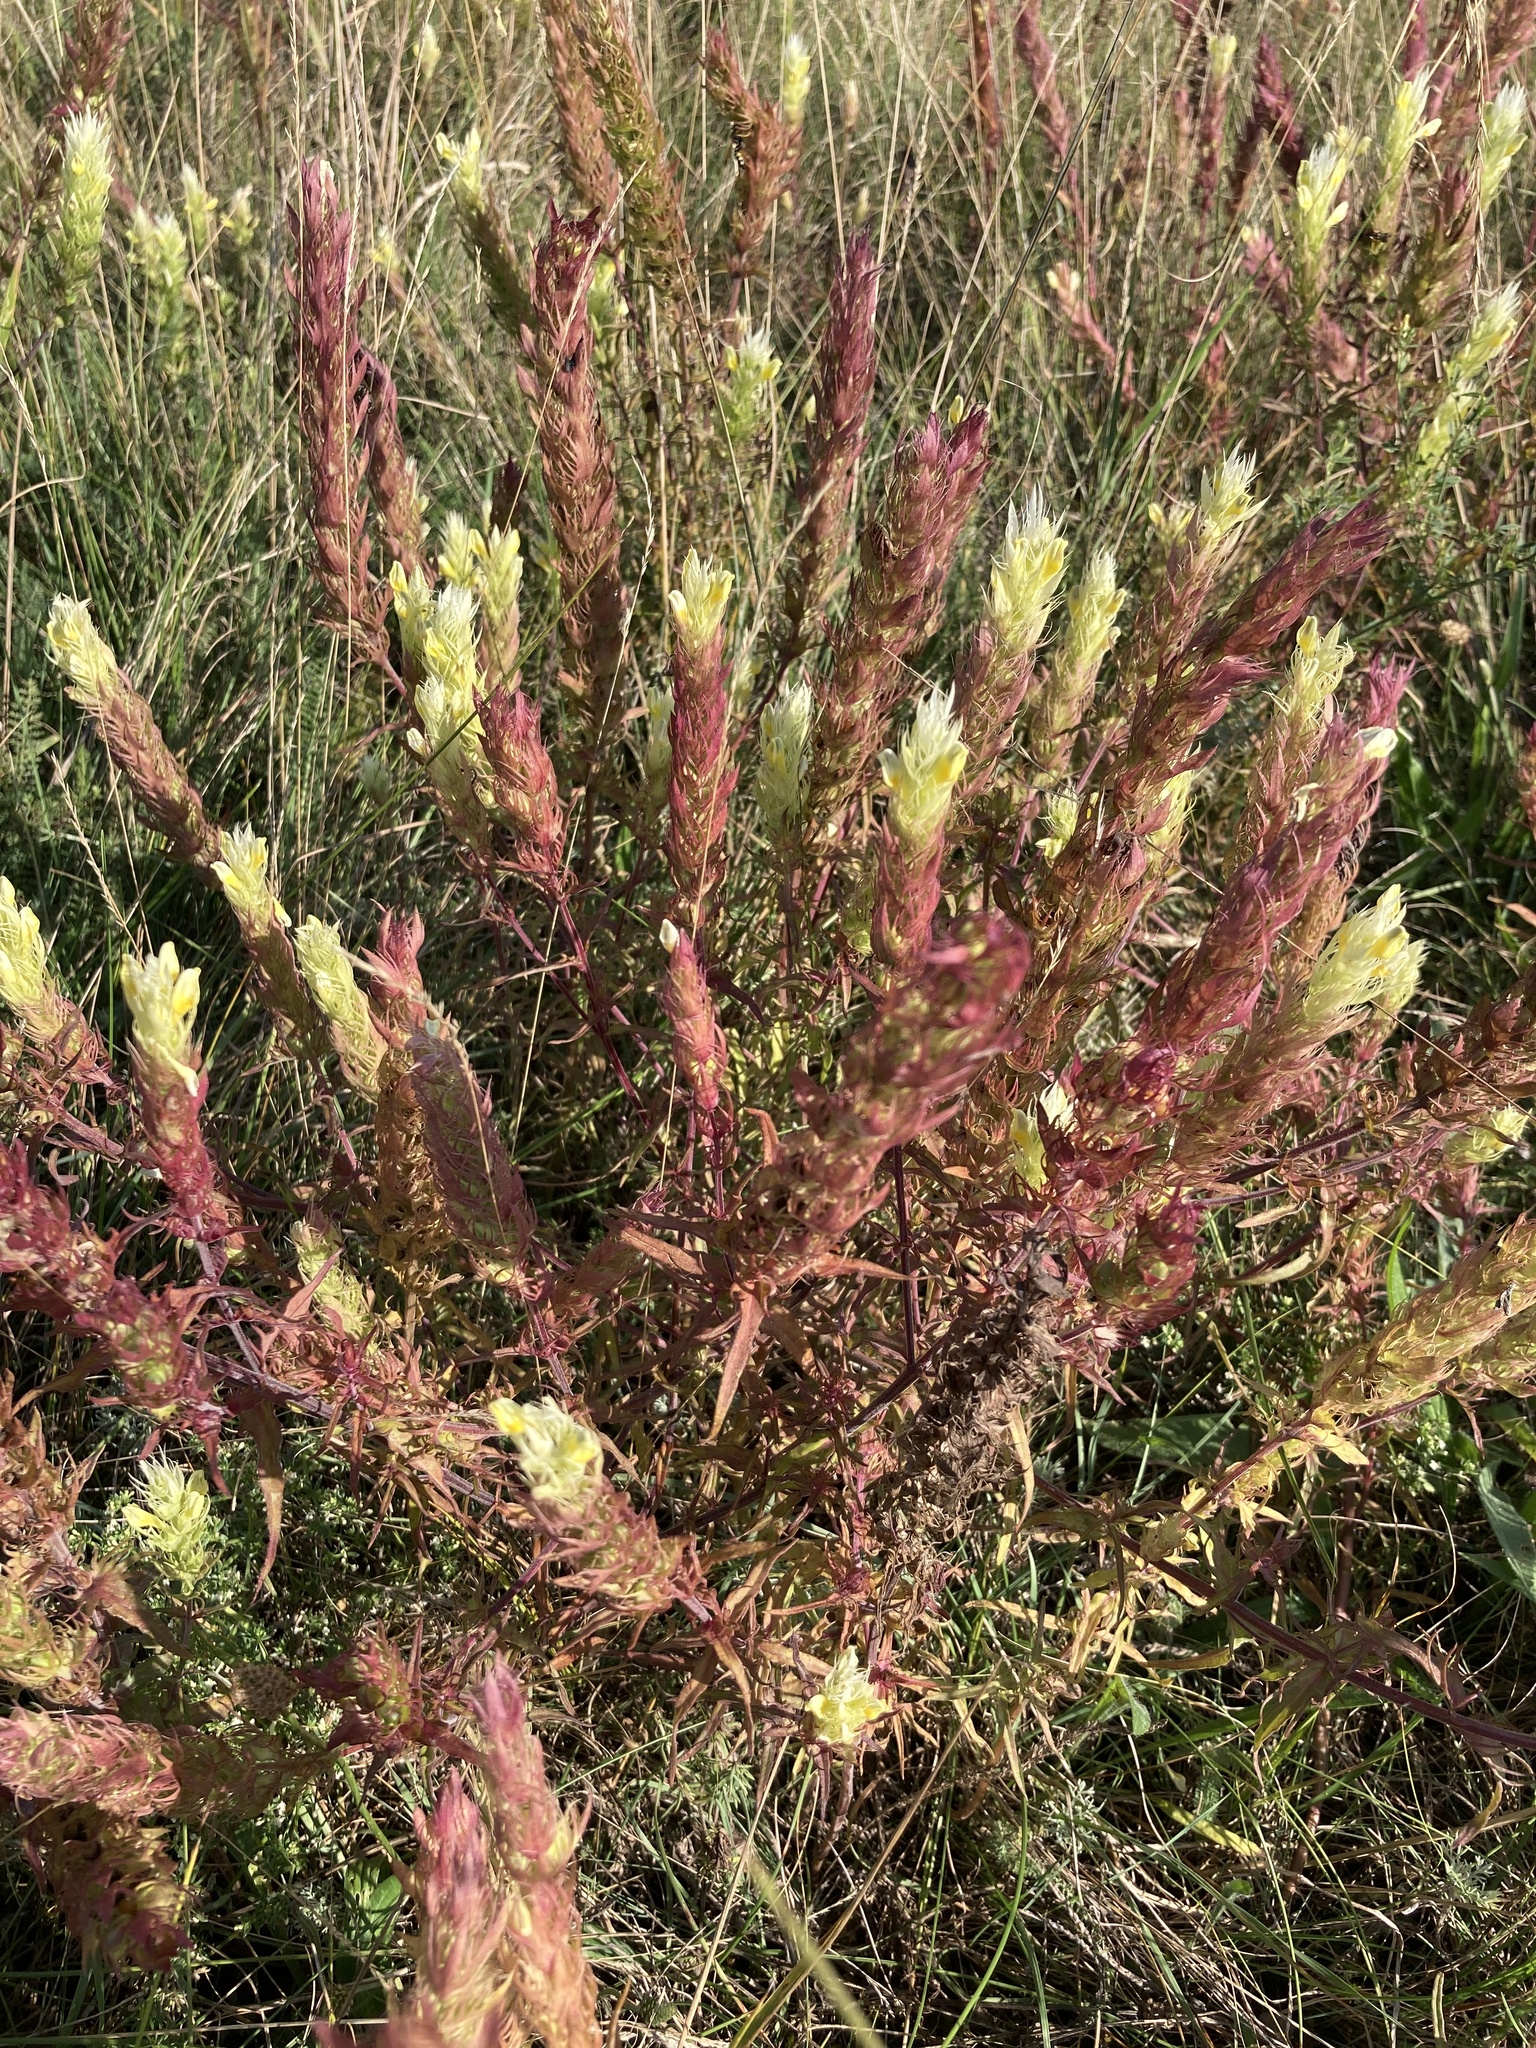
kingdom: Plantae
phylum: Tracheophyta
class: Magnoliopsida
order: Lamiales
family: Orobanchaceae
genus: Melampyrum
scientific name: Melampyrum arvense
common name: Field cow-wheat
